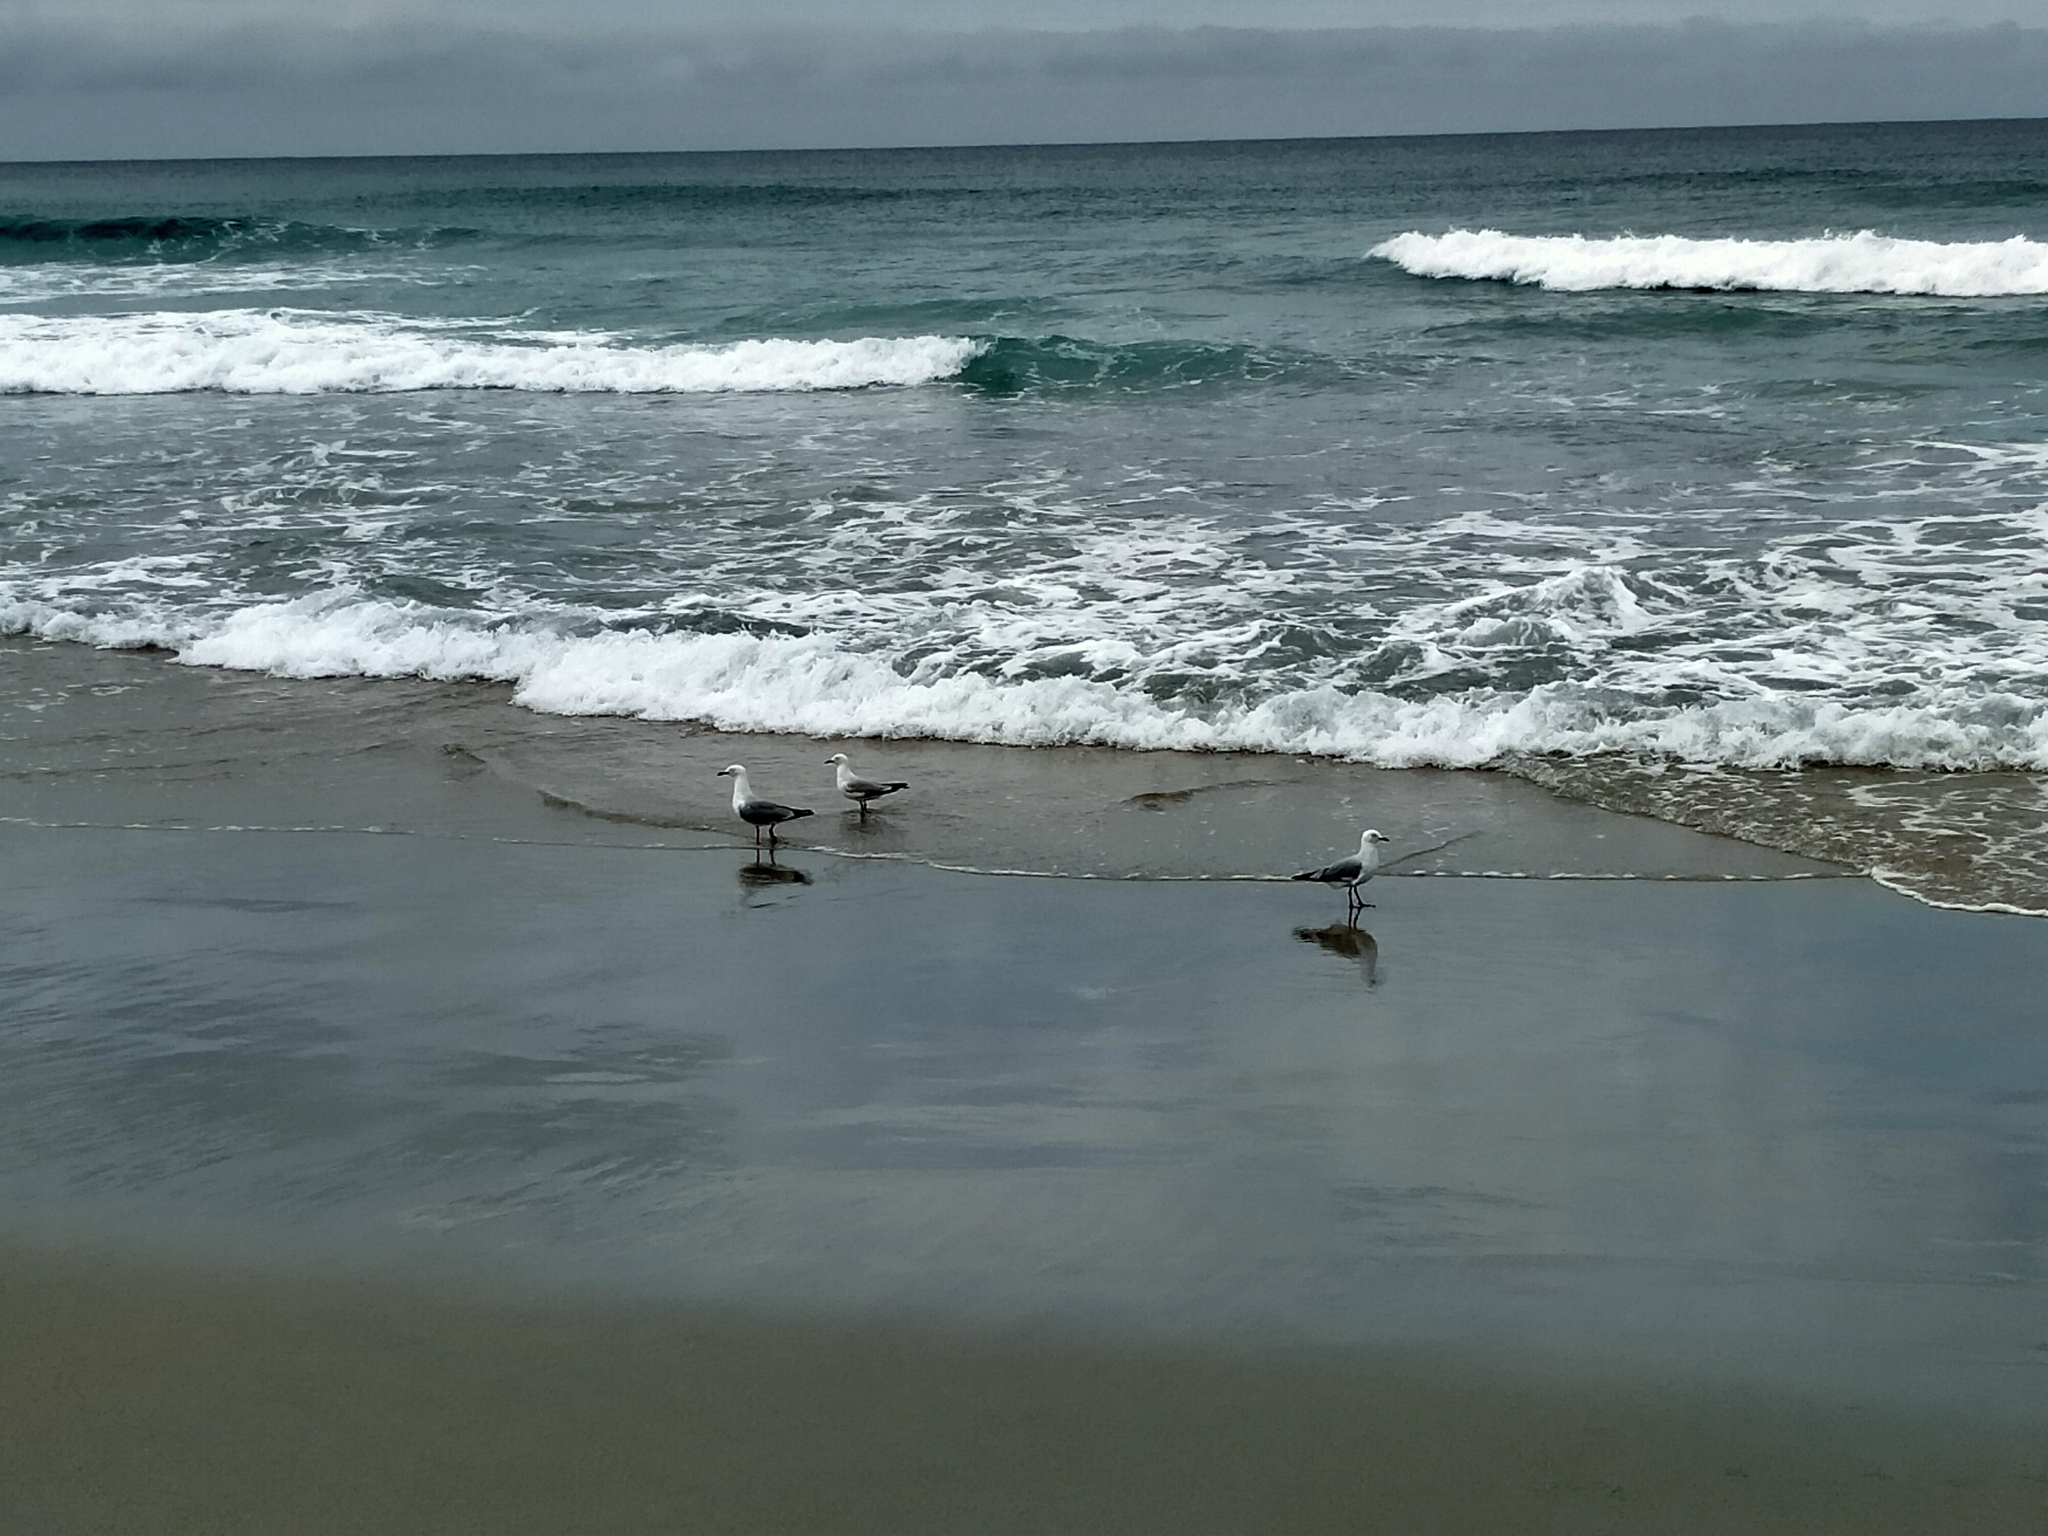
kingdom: Animalia
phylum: Chordata
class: Aves
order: Charadriiformes
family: Laridae
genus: Chroicocephalus
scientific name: Chroicocephalus novaehollandiae
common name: Silver gull
